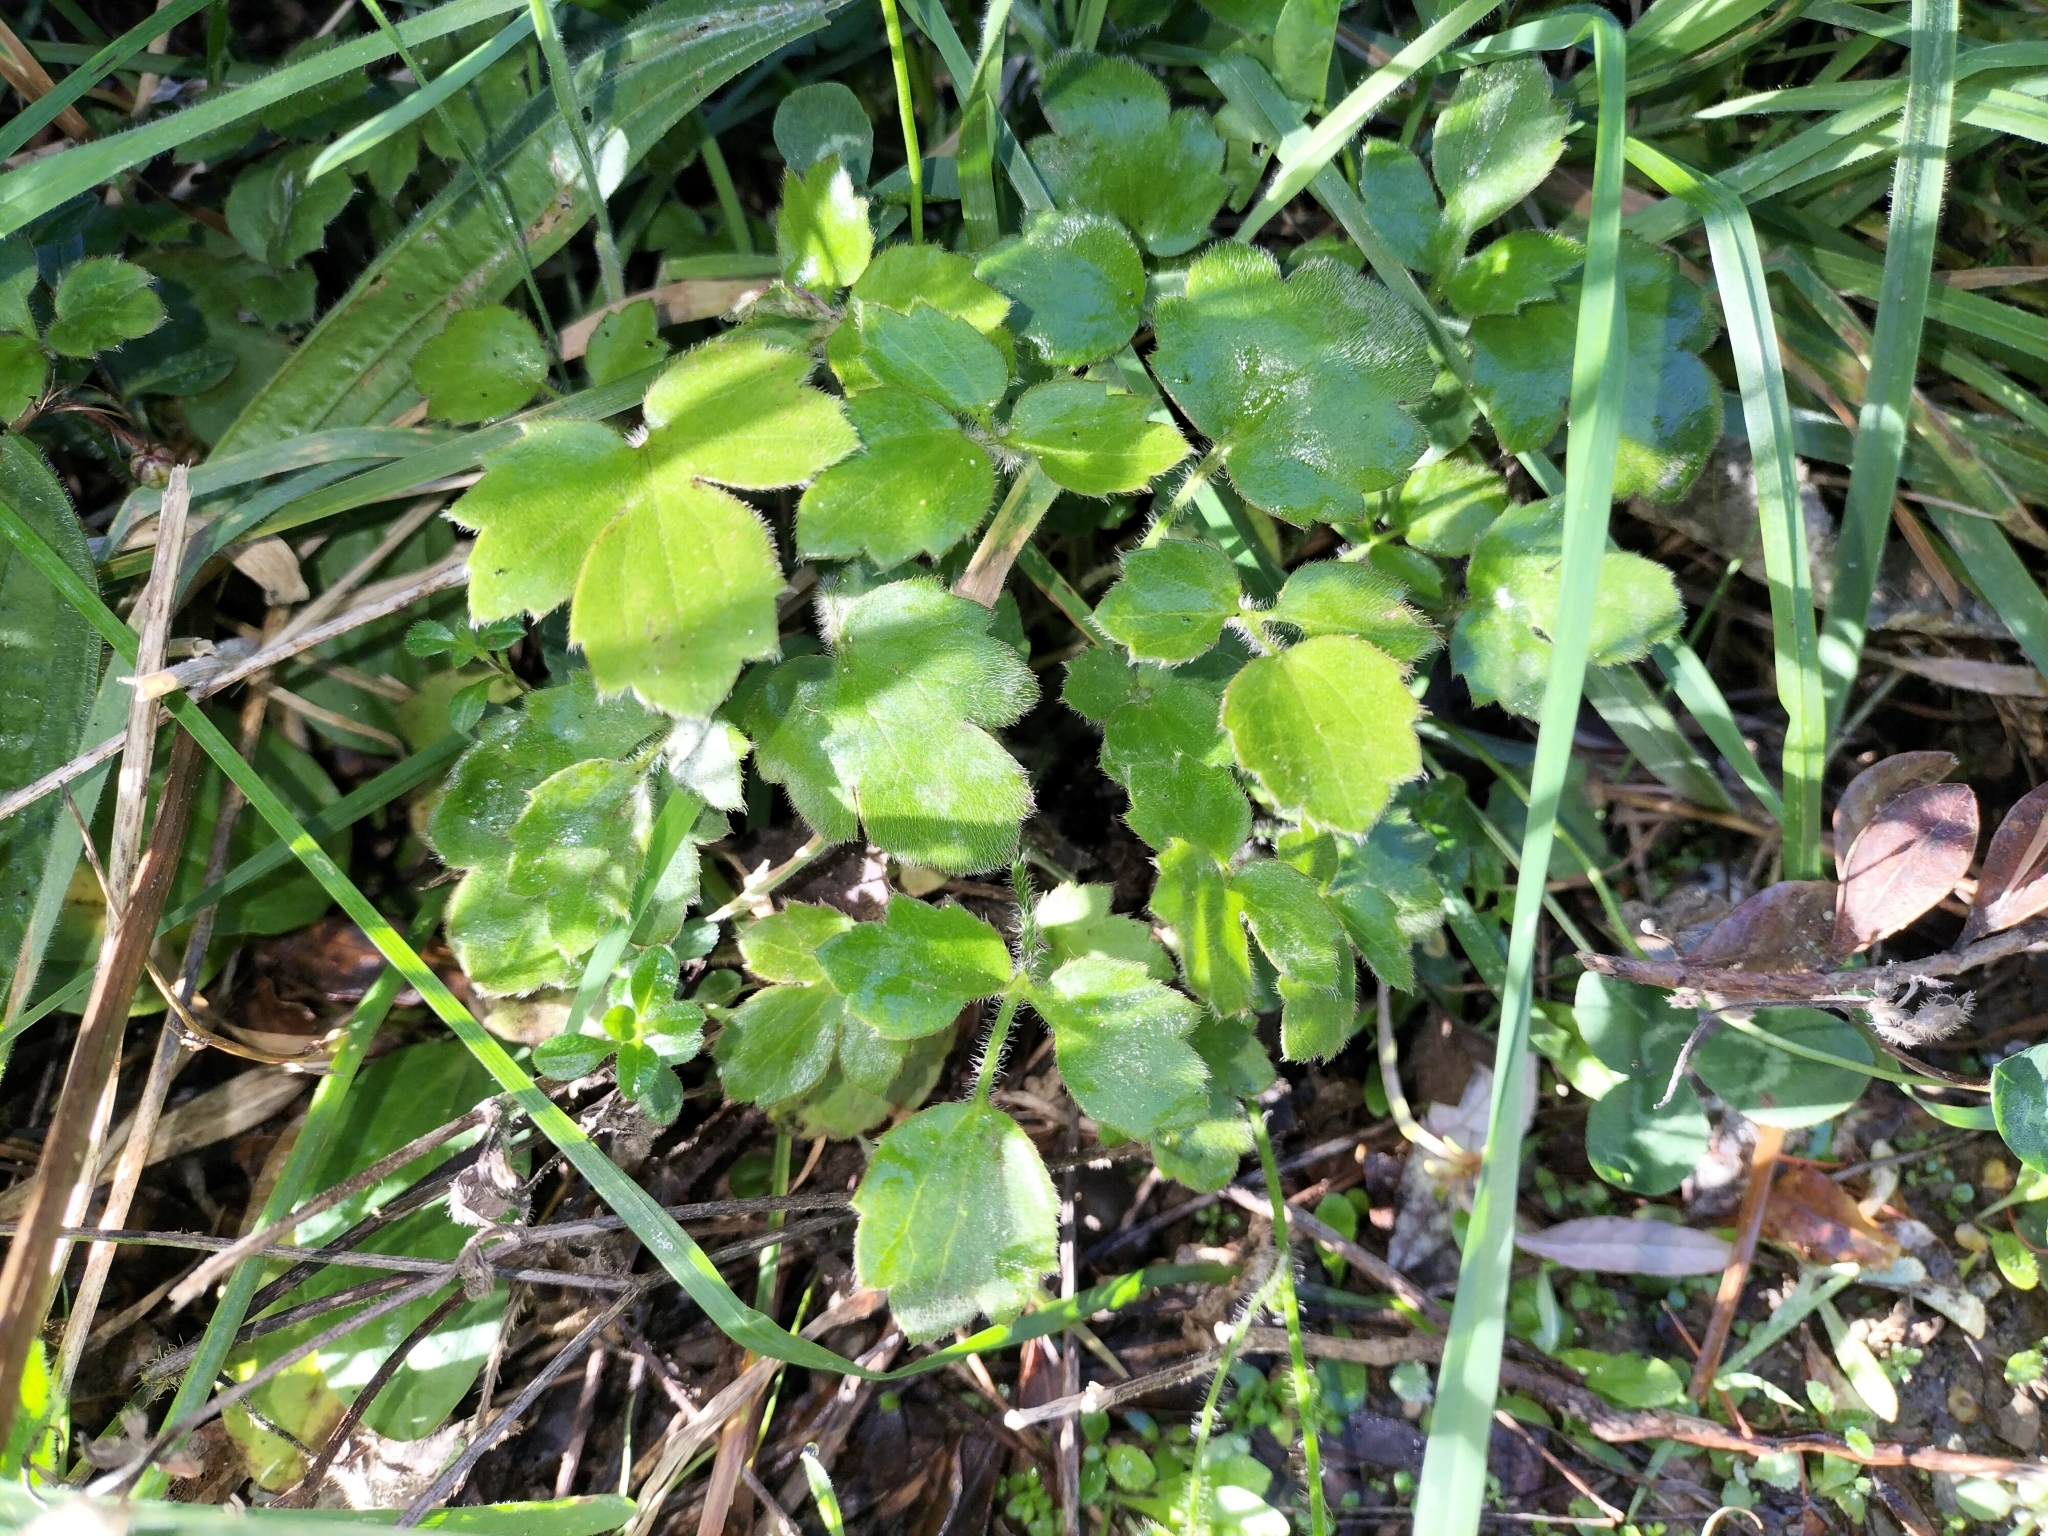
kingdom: Plantae
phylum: Tracheophyta
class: Magnoliopsida
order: Ranunculales
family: Ranunculaceae
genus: Ranunculus
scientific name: Ranunculus reflexus
